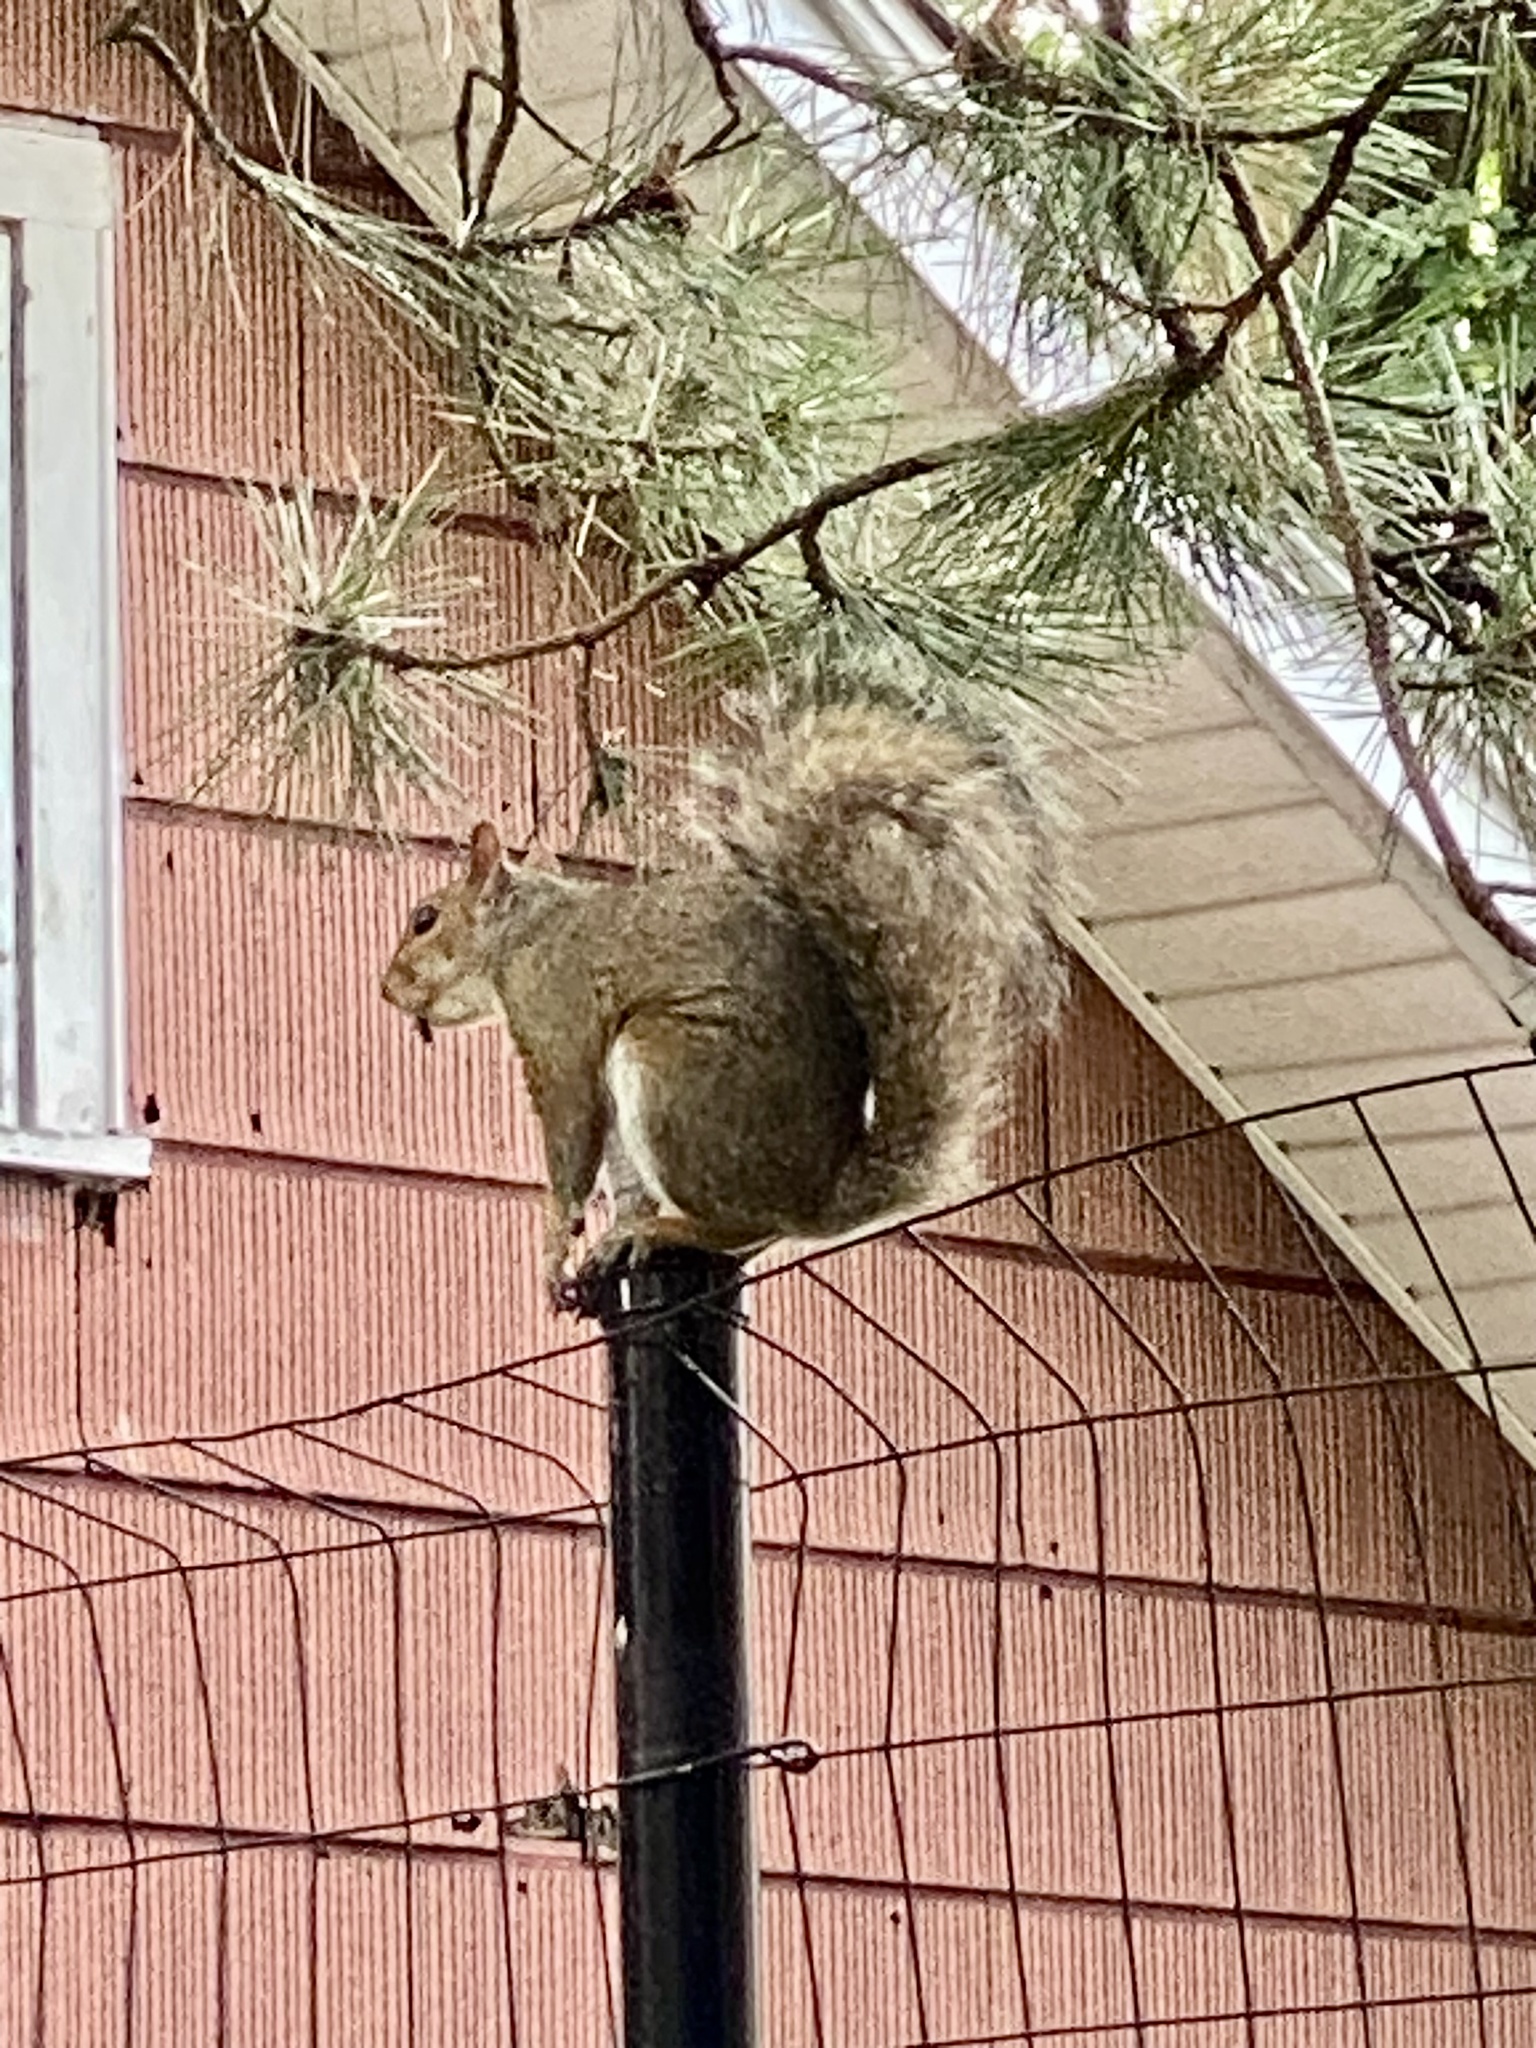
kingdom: Animalia
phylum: Chordata
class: Mammalia
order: Rodentia
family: Sciuridae
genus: Sciurus
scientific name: Sciurus carolinensis
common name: Eastern gray squirrel
